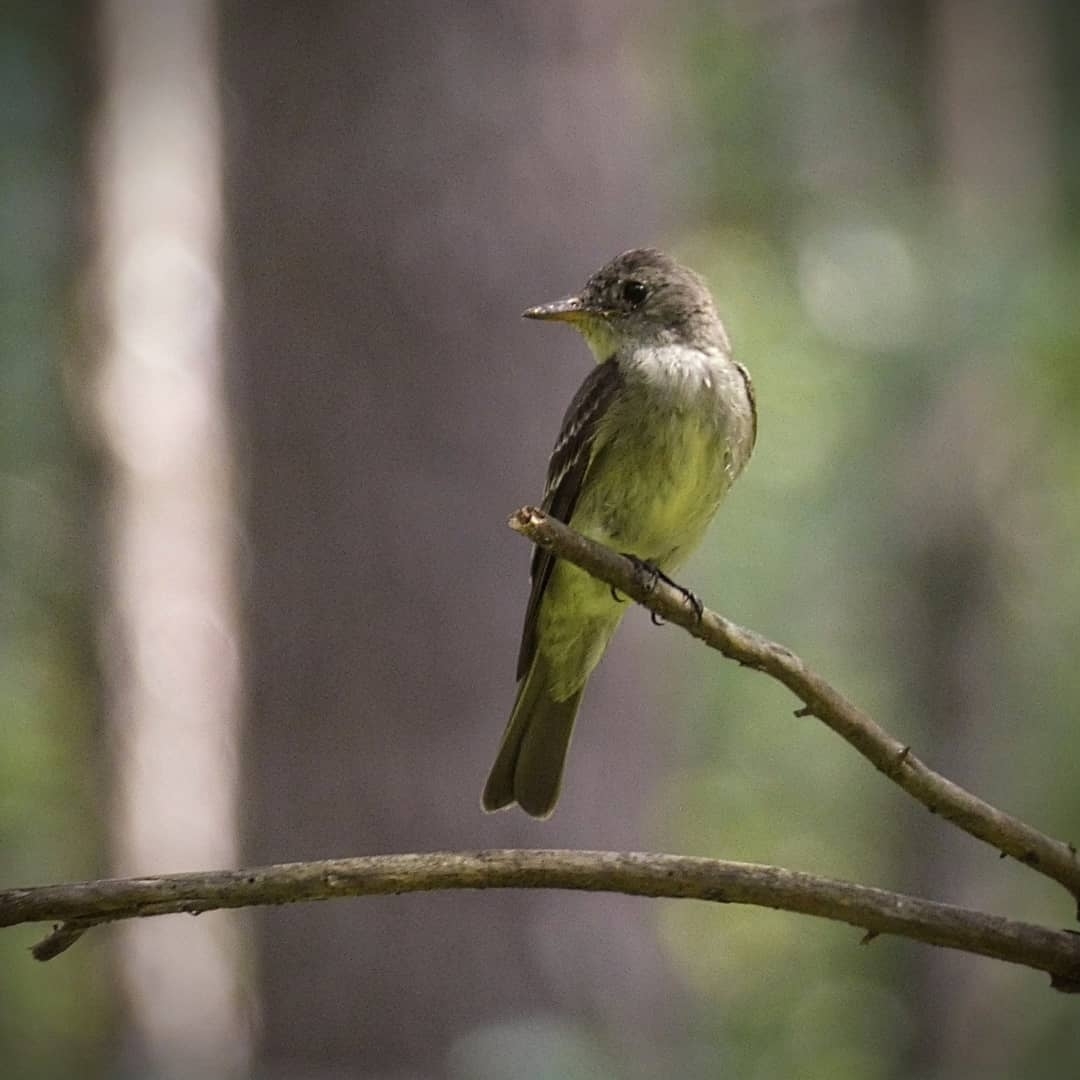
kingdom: Animalia
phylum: Chordata
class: Aves
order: Passeriformes
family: Tyrannidae
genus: Contopus
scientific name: Contopus virens
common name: Eastern wood-pewee
